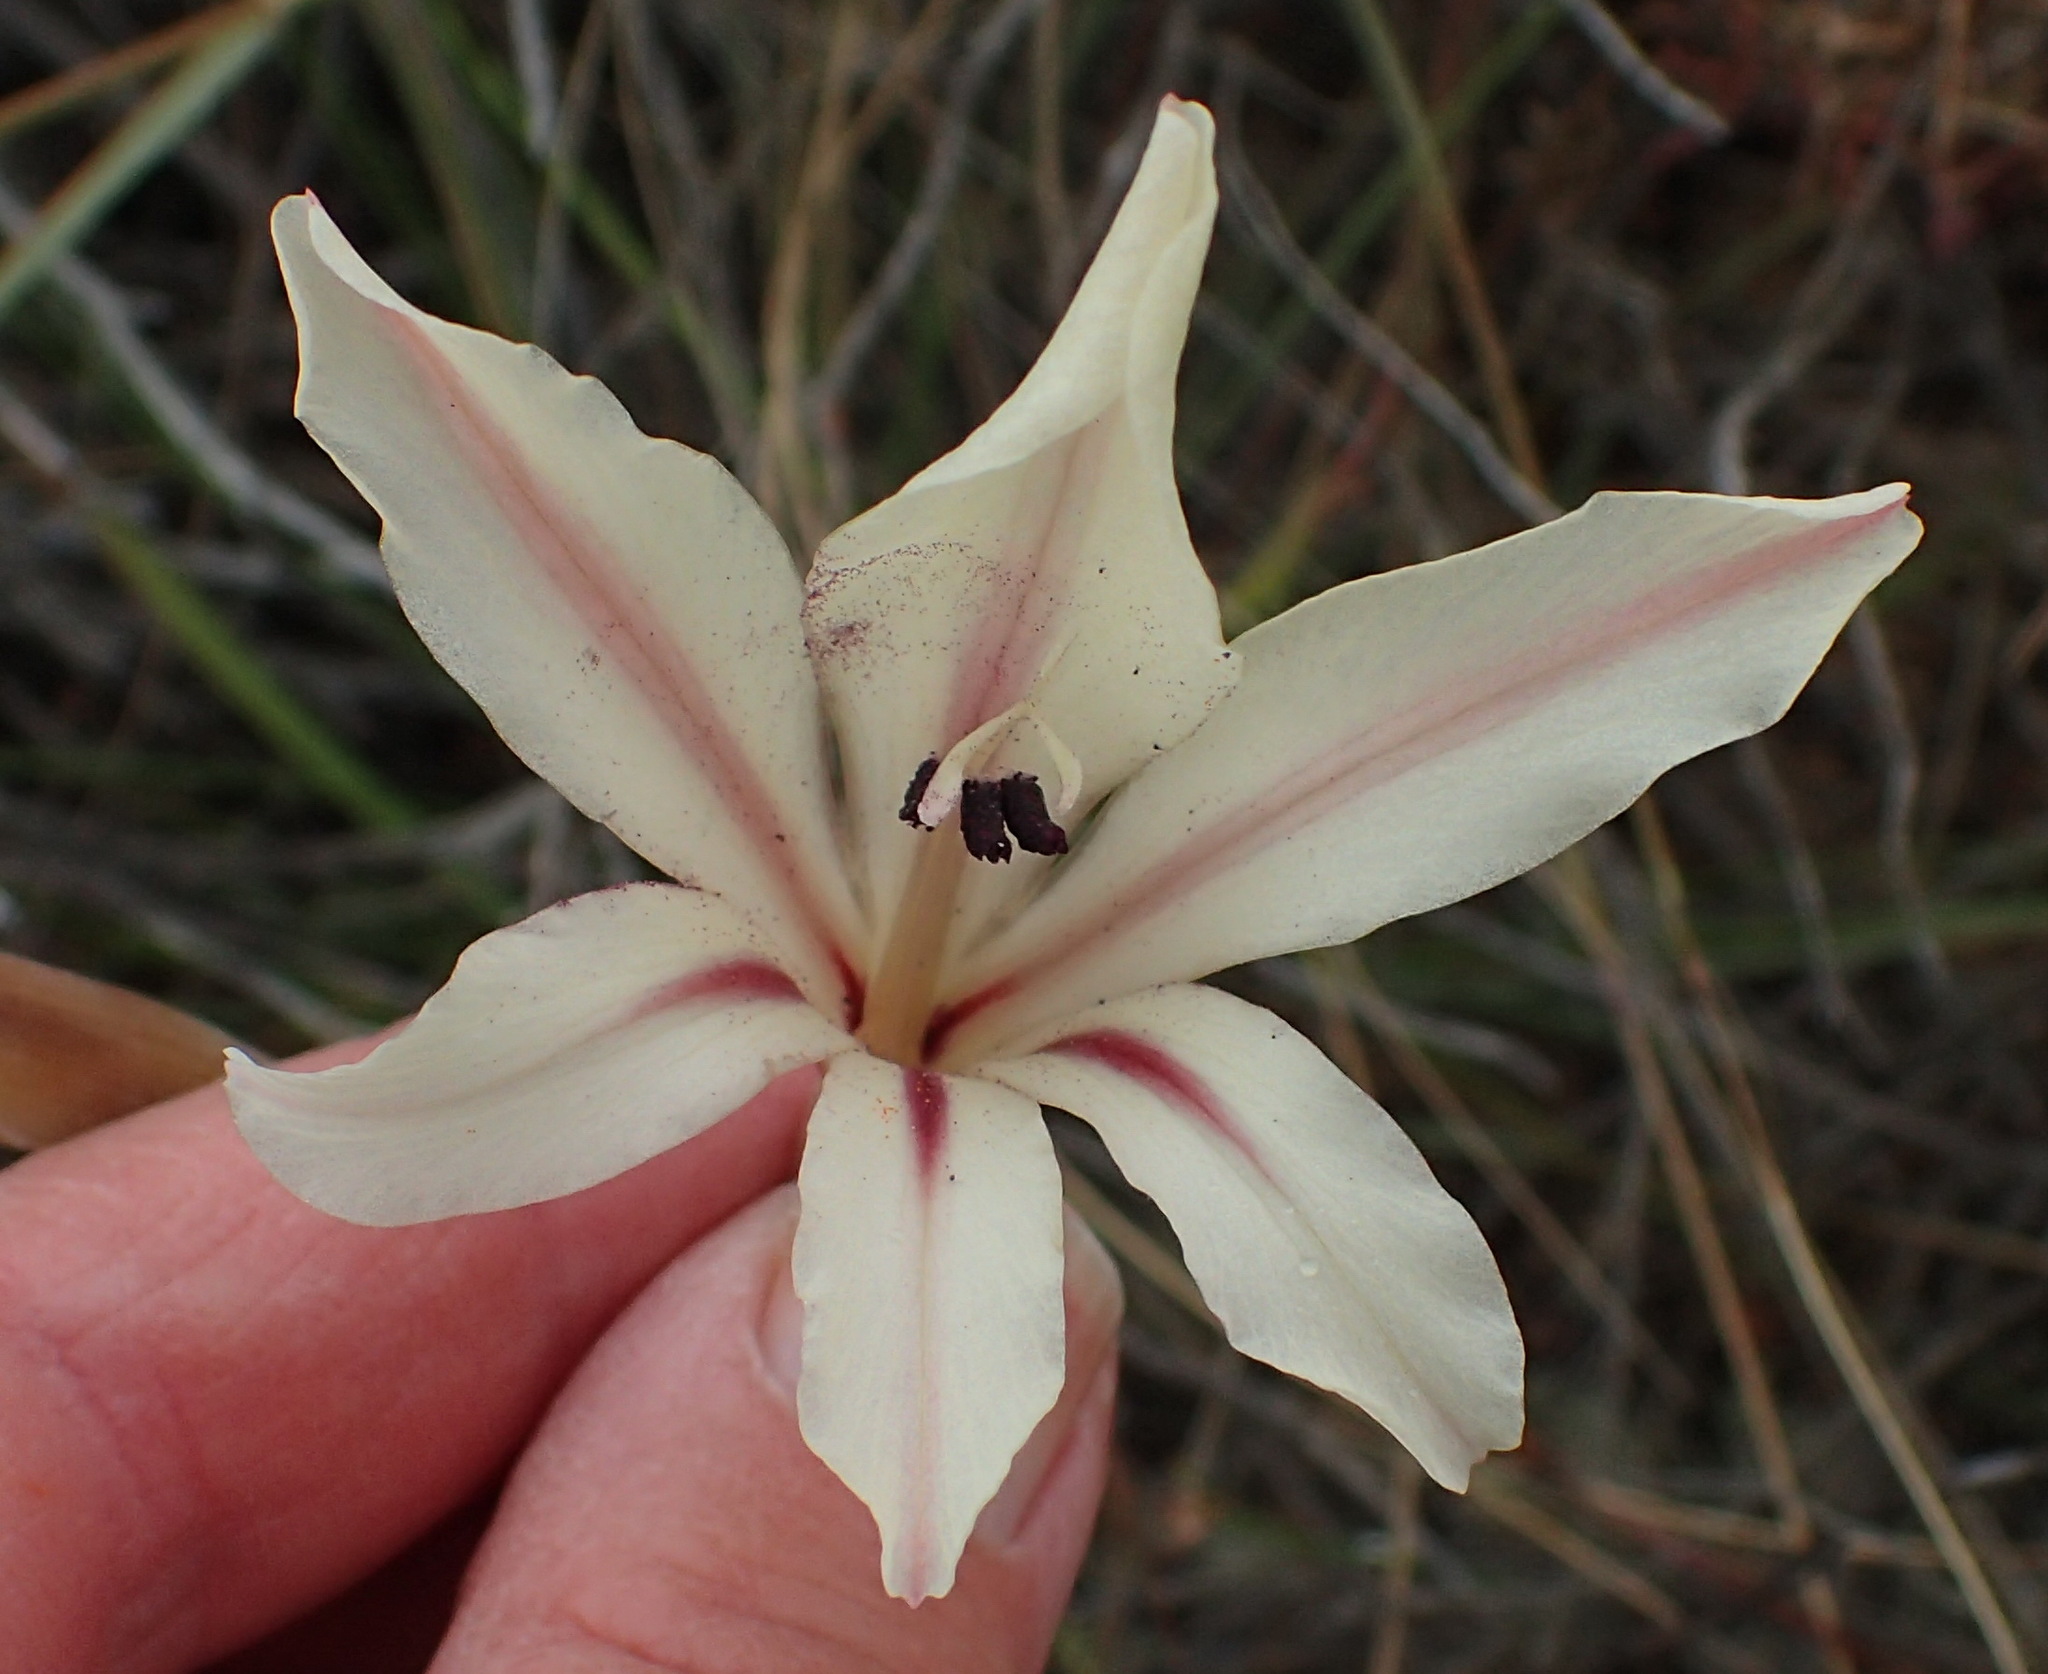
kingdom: Plantae
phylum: Tracheophyta
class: Liliopsida
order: Asparagales
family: Iridaceae
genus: Gladiolus
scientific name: Gladiolus grandiflorus
